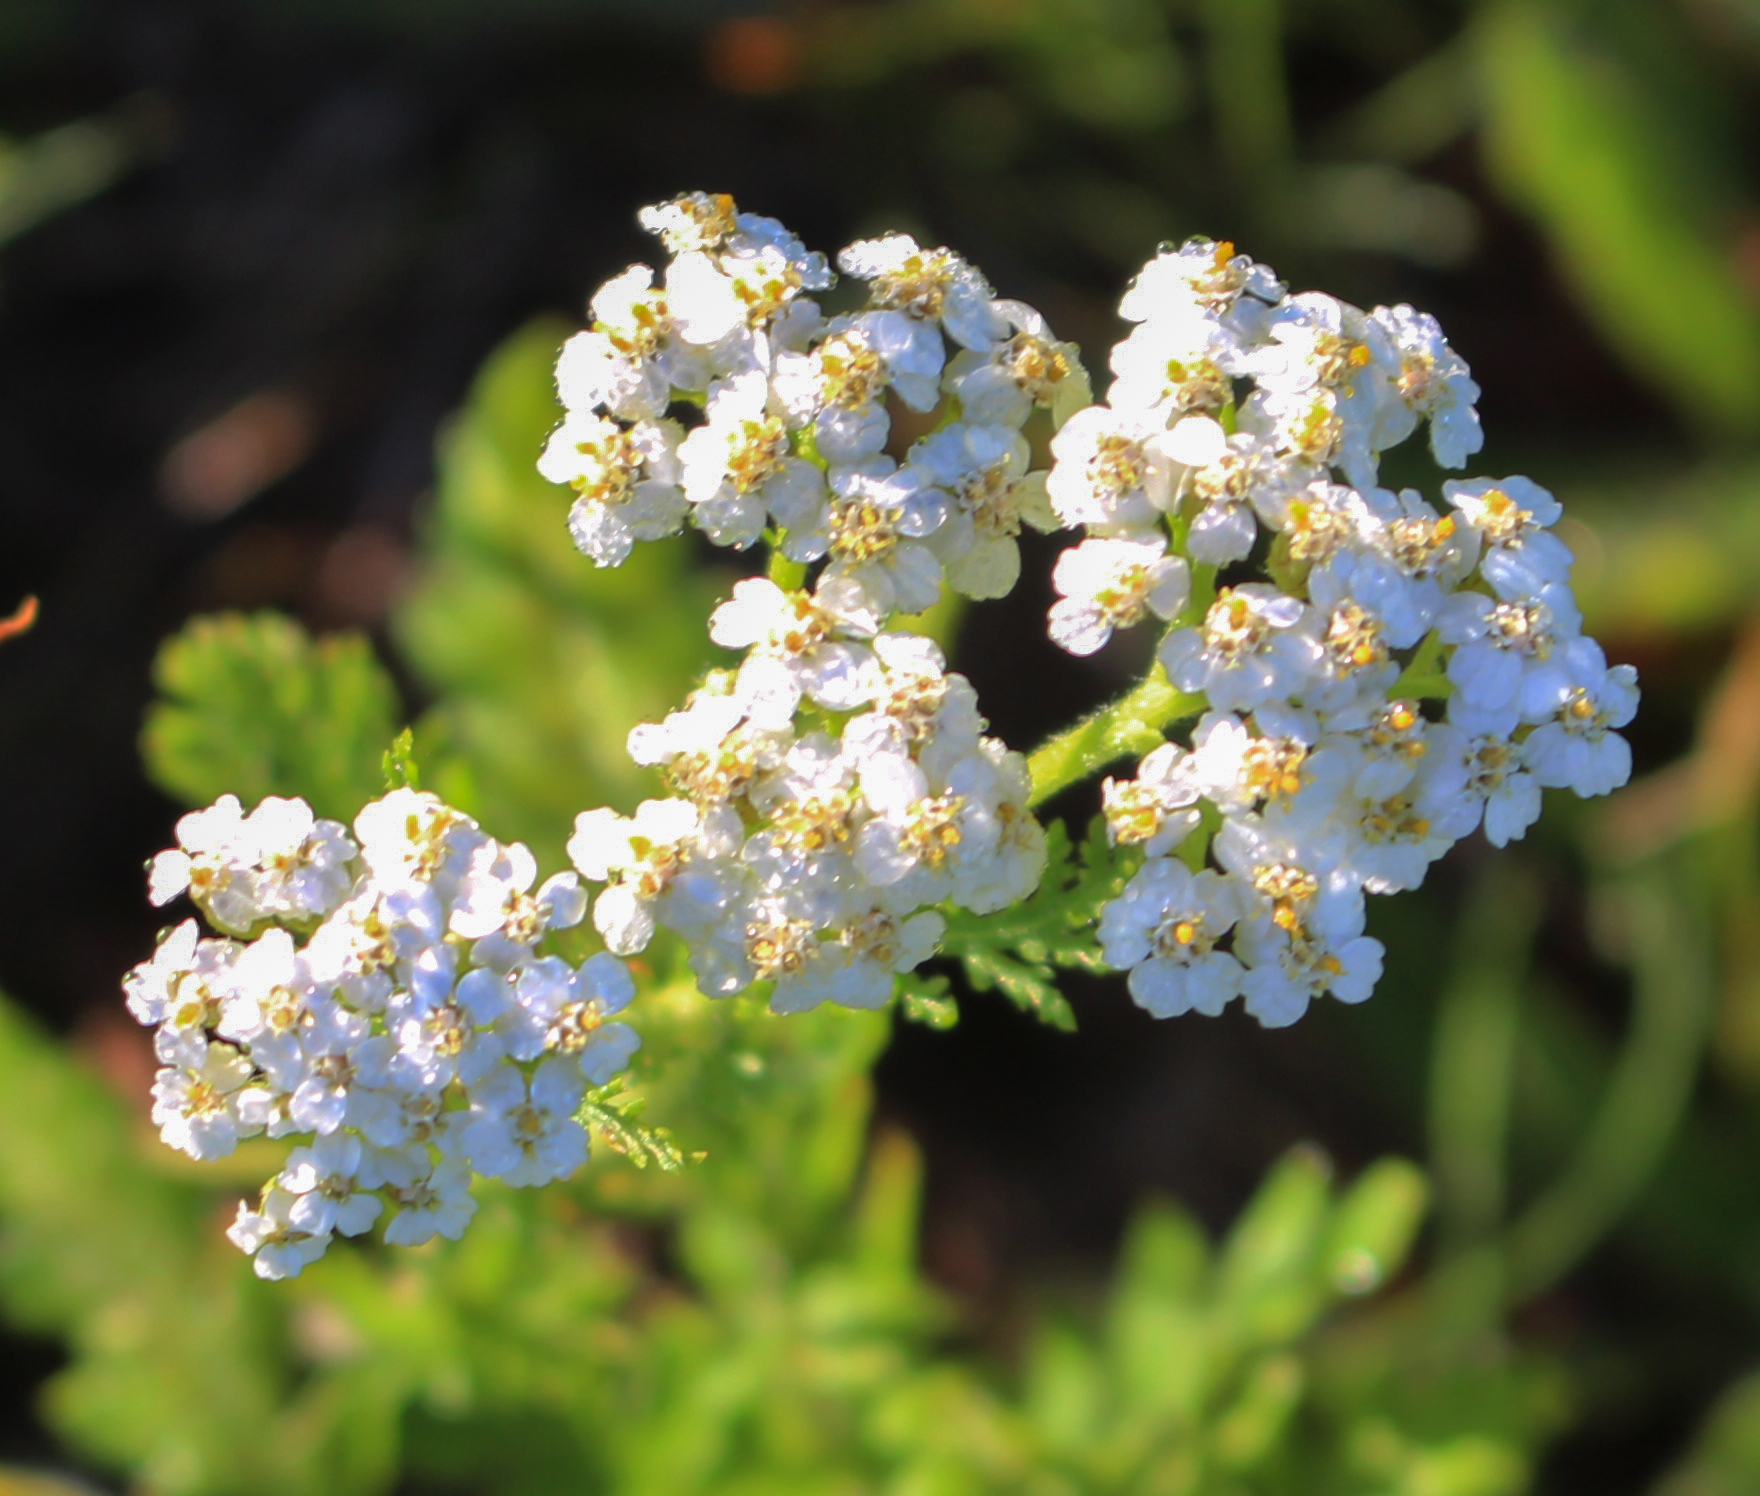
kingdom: Plantae
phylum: Tracheophyta
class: Magnoliopsida
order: Asterales
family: Asteraceae
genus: Achillea
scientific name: Achillea millefolium
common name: Yarrow
